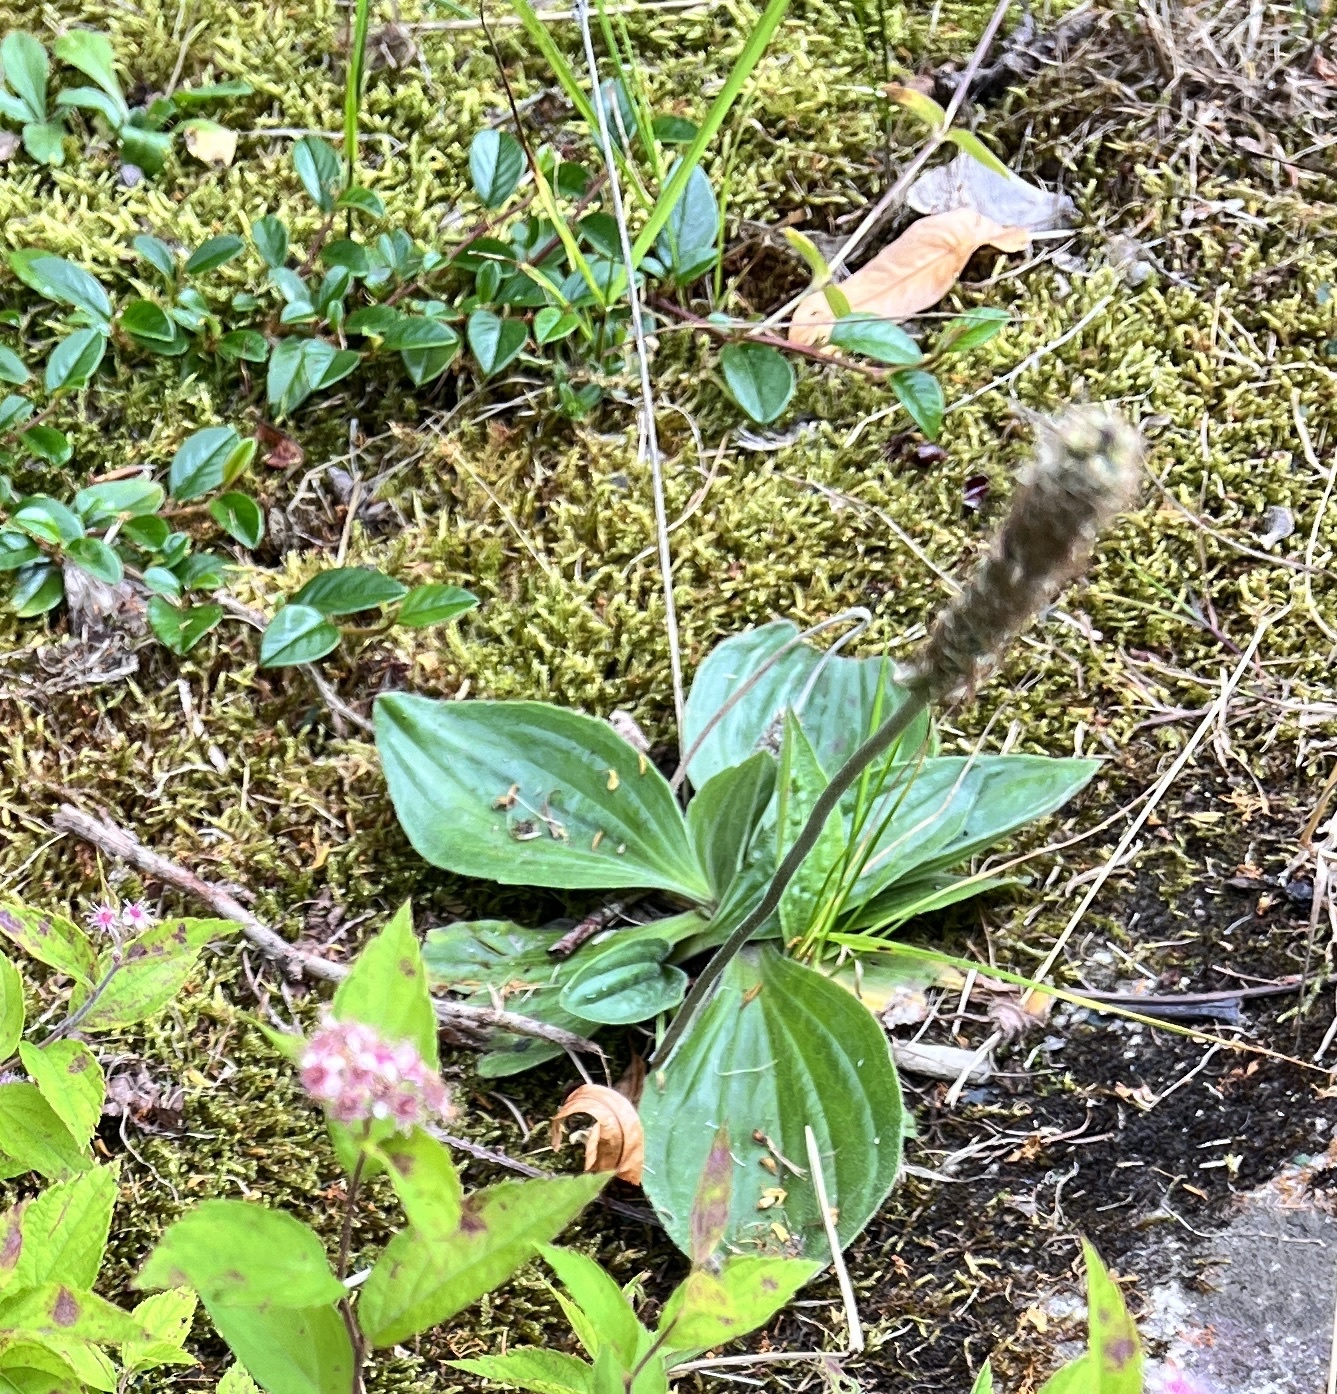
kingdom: Plantae
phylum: Tracheophyta
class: Magnoliopsida
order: Lamiales
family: Plantaginaceae
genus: Plantago
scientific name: Plantago media
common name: Hoary plantain
